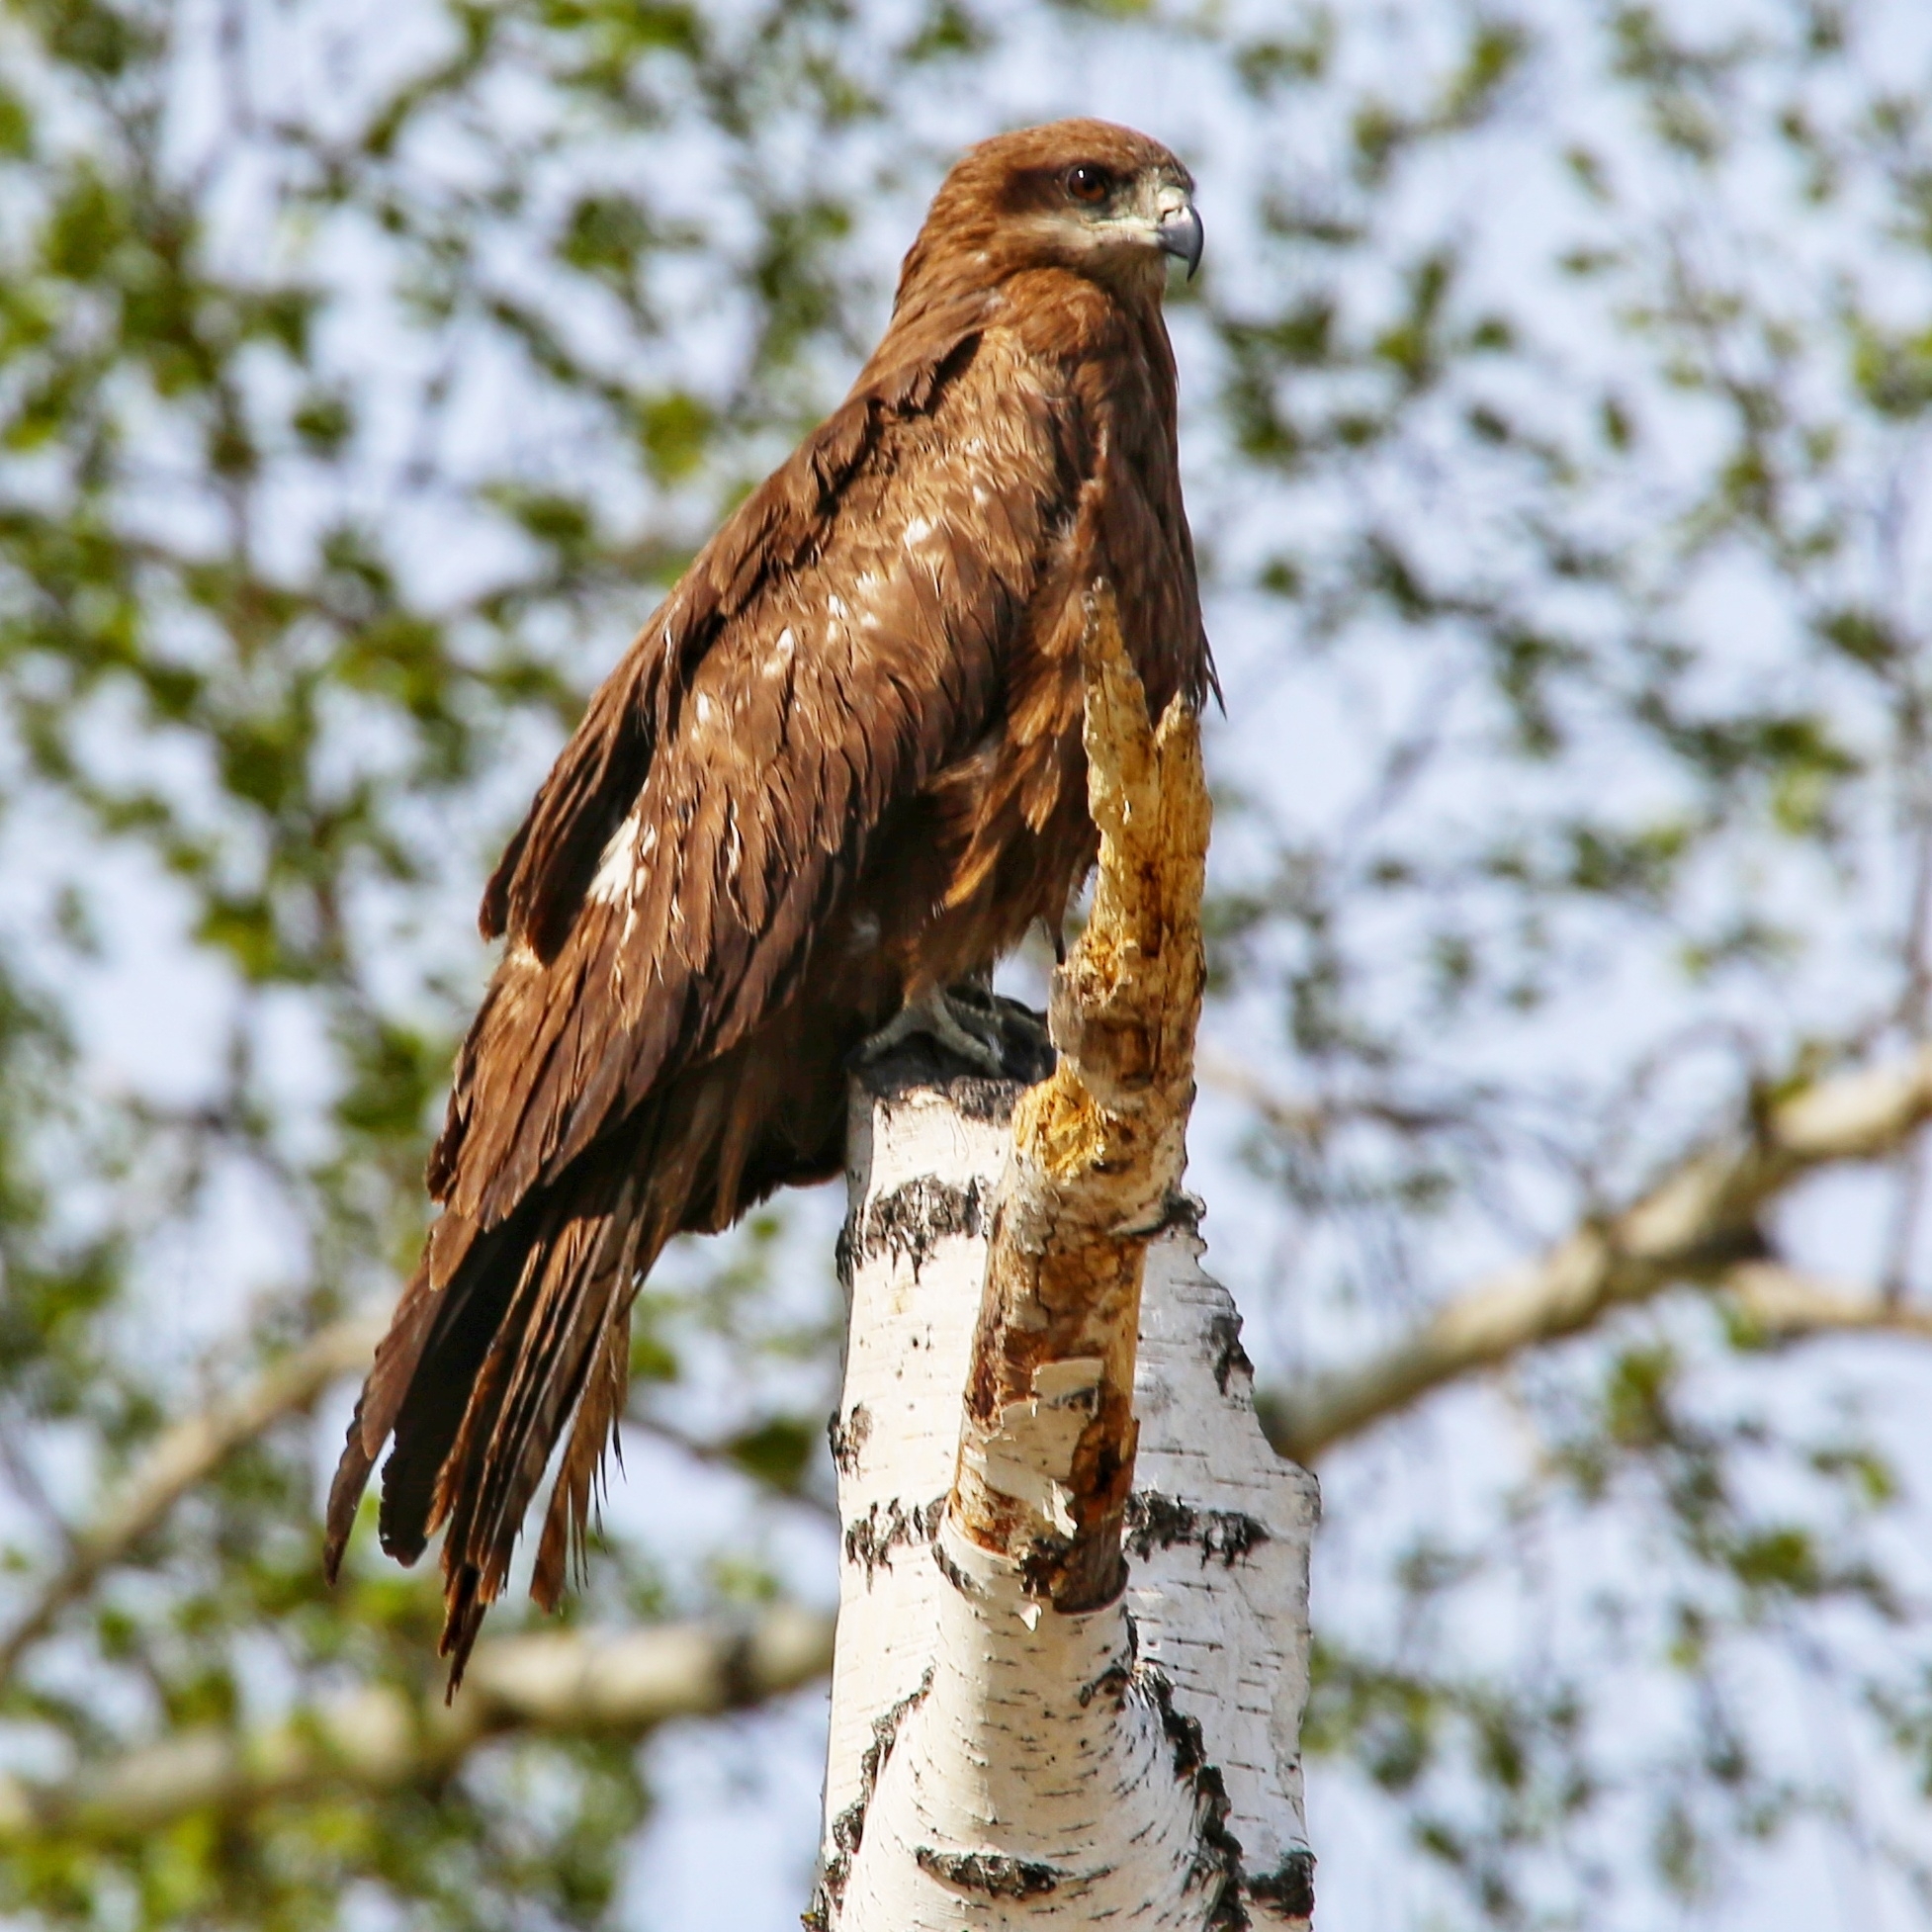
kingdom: Animalia
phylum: Chordata
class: Aves
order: Accipitriformes
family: Accipitridae
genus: Milvus
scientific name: Milvus migrans
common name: Black kite
